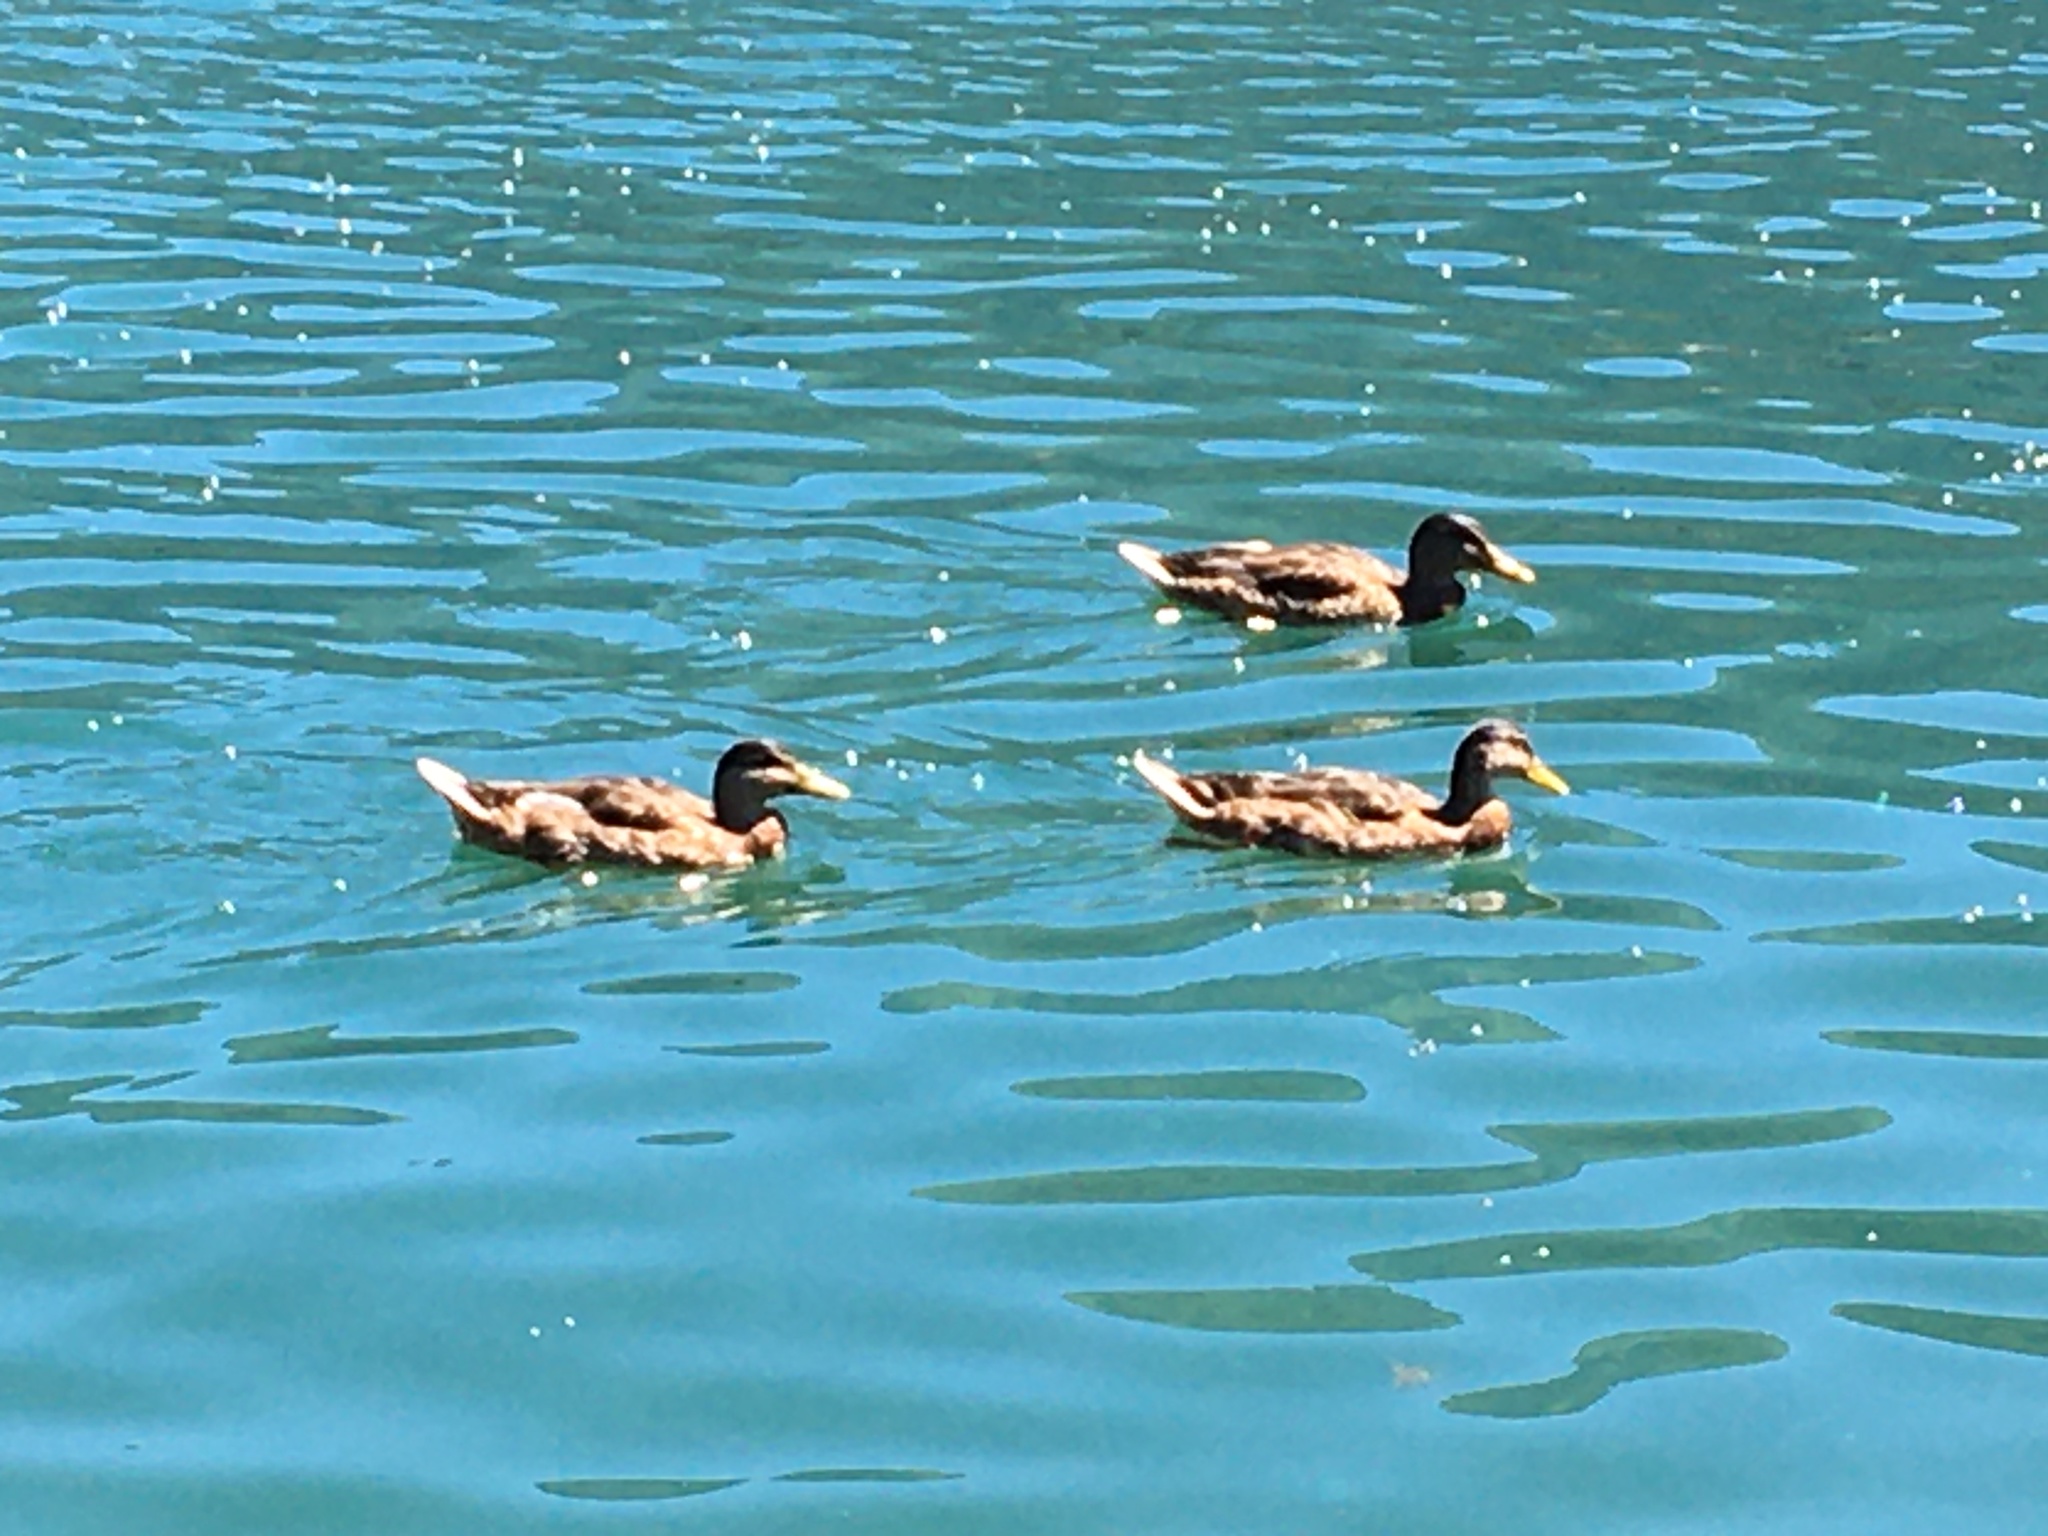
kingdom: Animalia
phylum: Chordata
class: Aves
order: Anseriformes
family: Anatidae
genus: Anas
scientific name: Anas platyrhynchos
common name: Mallard
